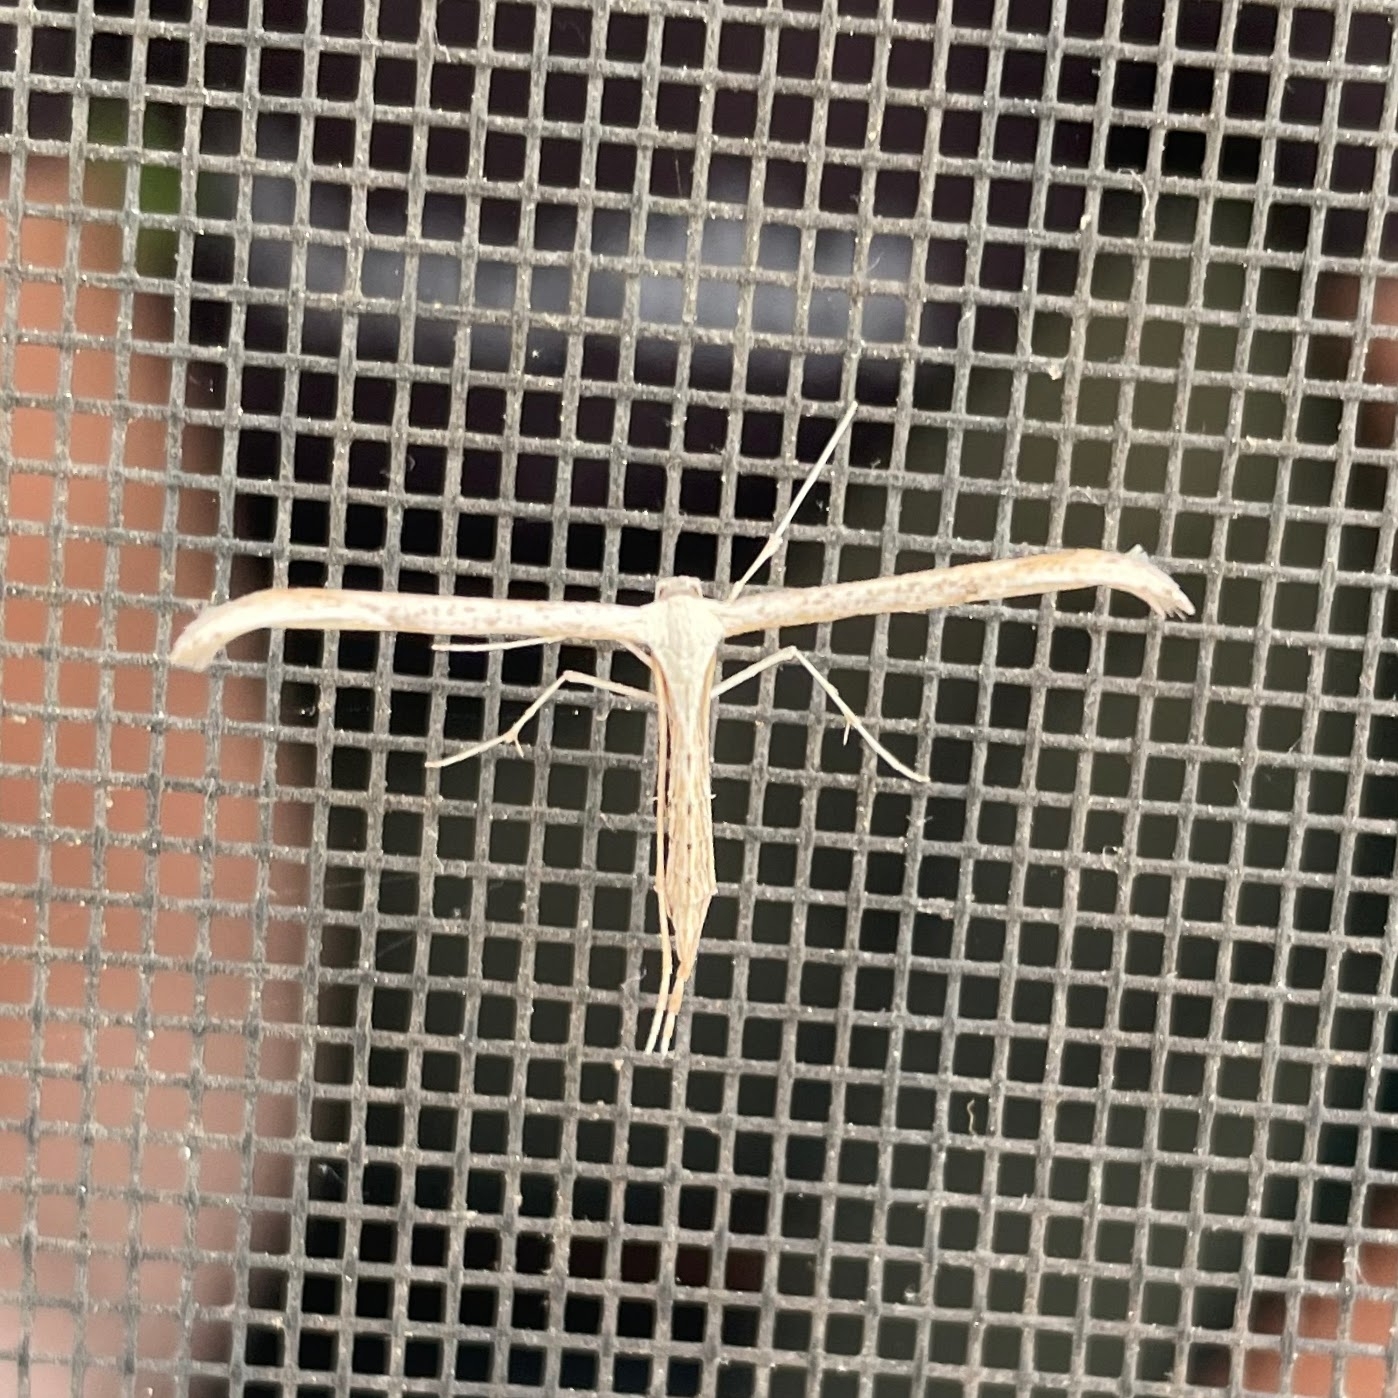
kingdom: Animalia
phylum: Arthropoda
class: Insecta
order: Lepidoptera
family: Pterophoridae
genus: Emmelina
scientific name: Emmelina monodactyla
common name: Common plume
